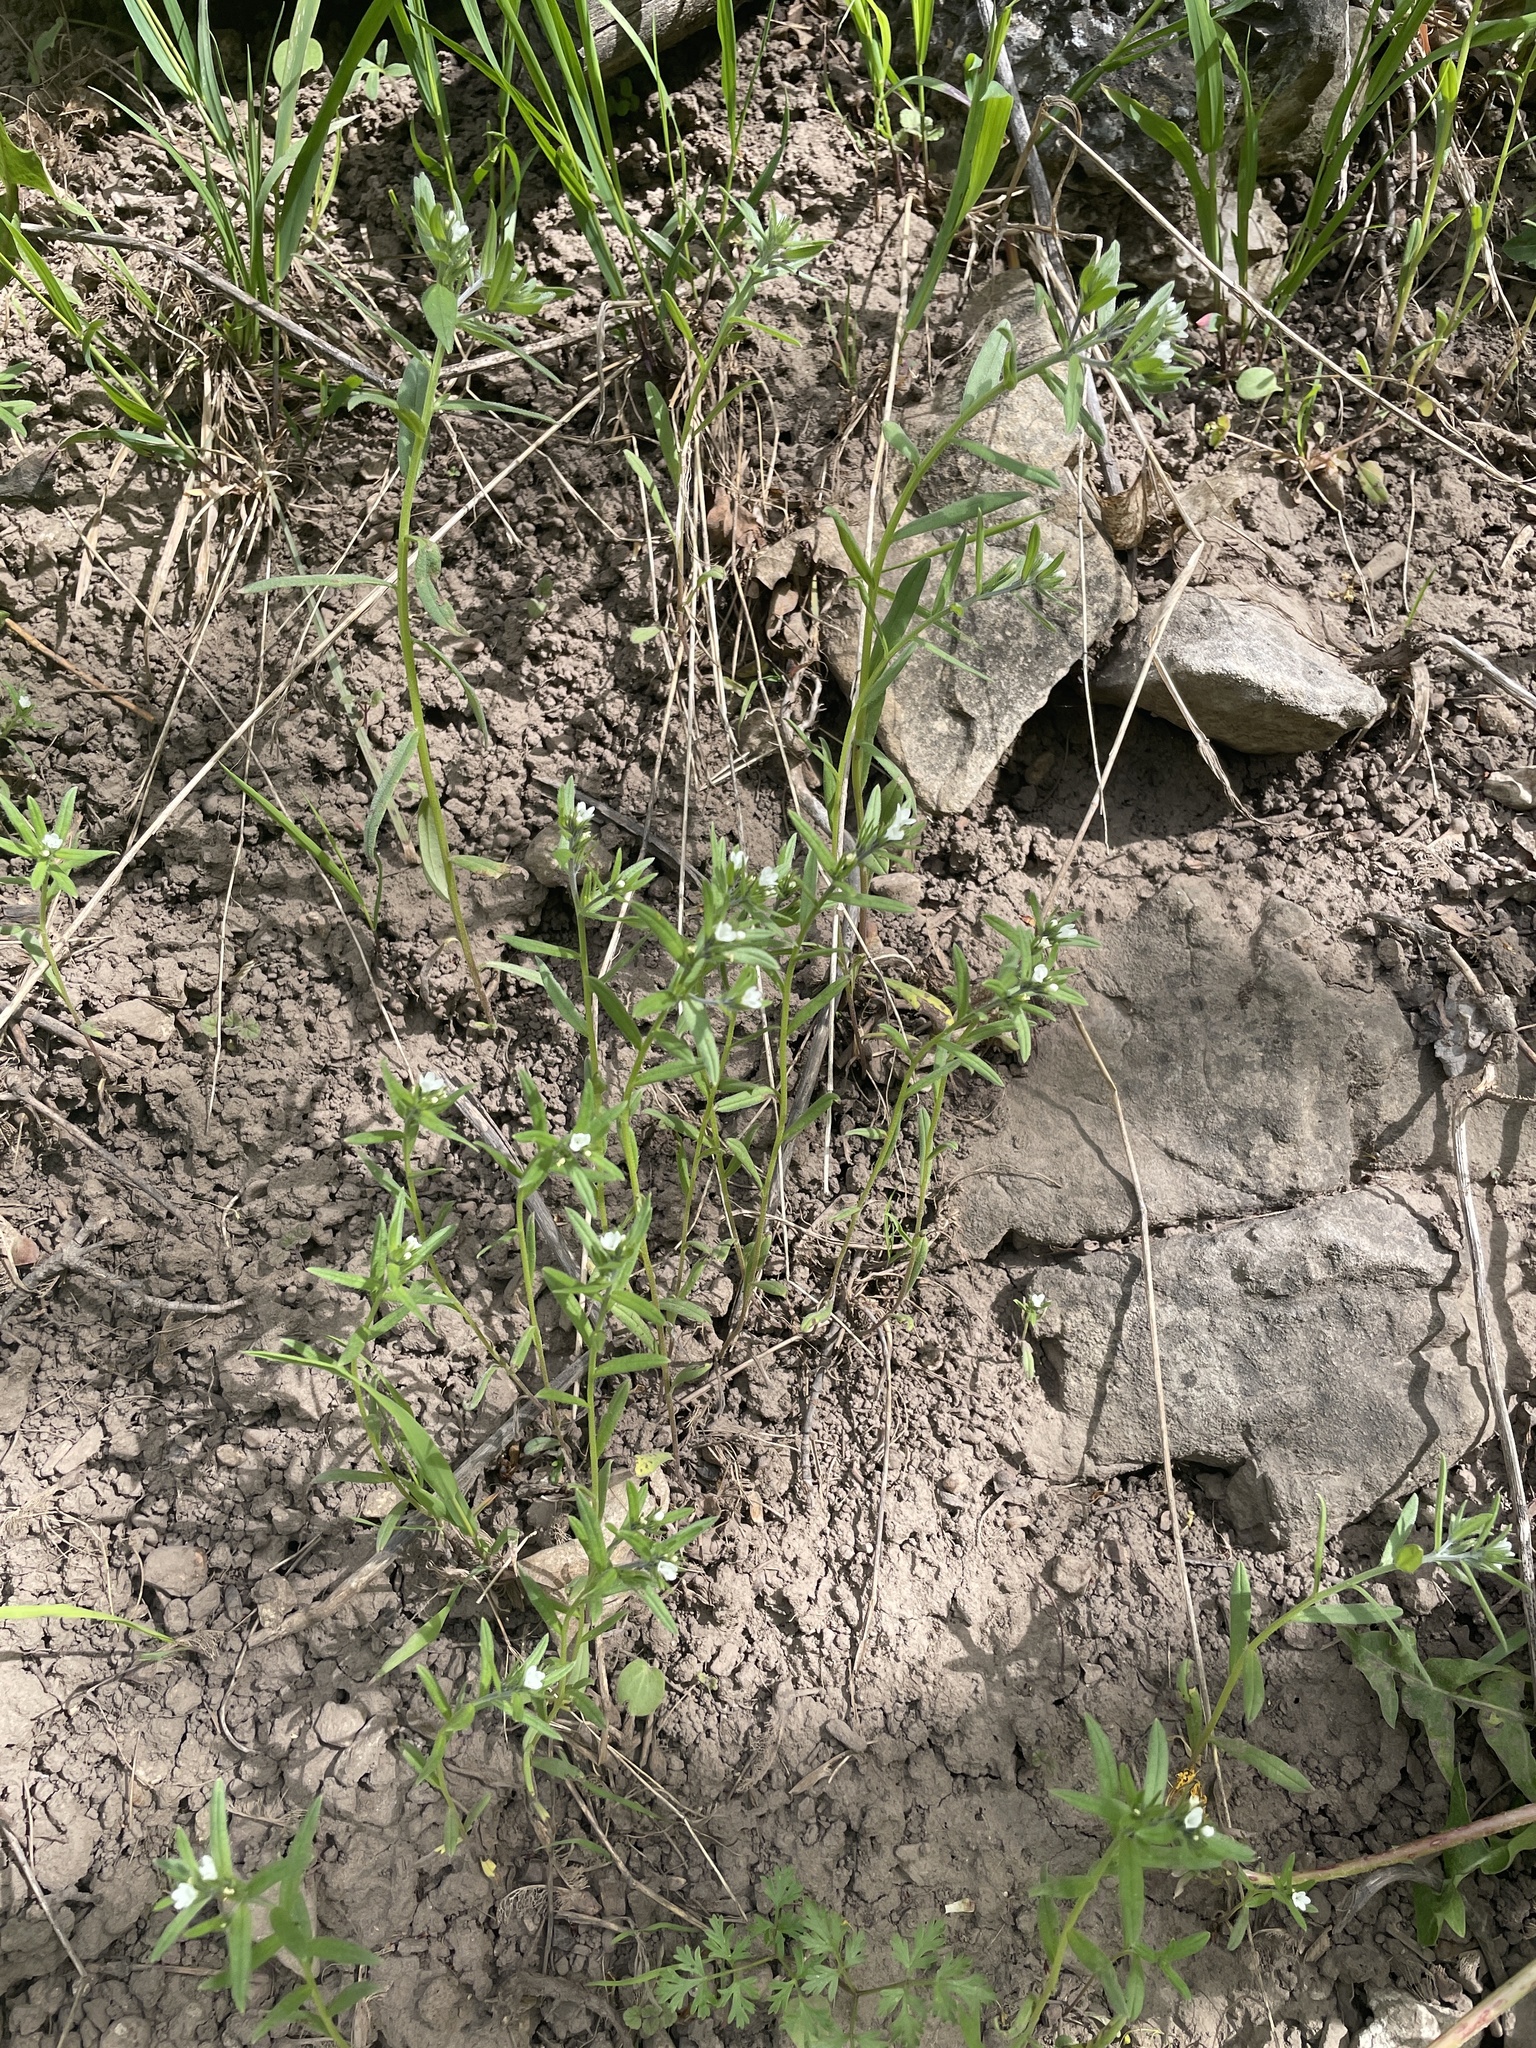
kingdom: Plantae
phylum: Tracheophyta
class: Magnoliopsida
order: Boraginales
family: Boraginaceae
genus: Buglossoides
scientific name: Buglossoides arvensis
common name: Corn gromwell
